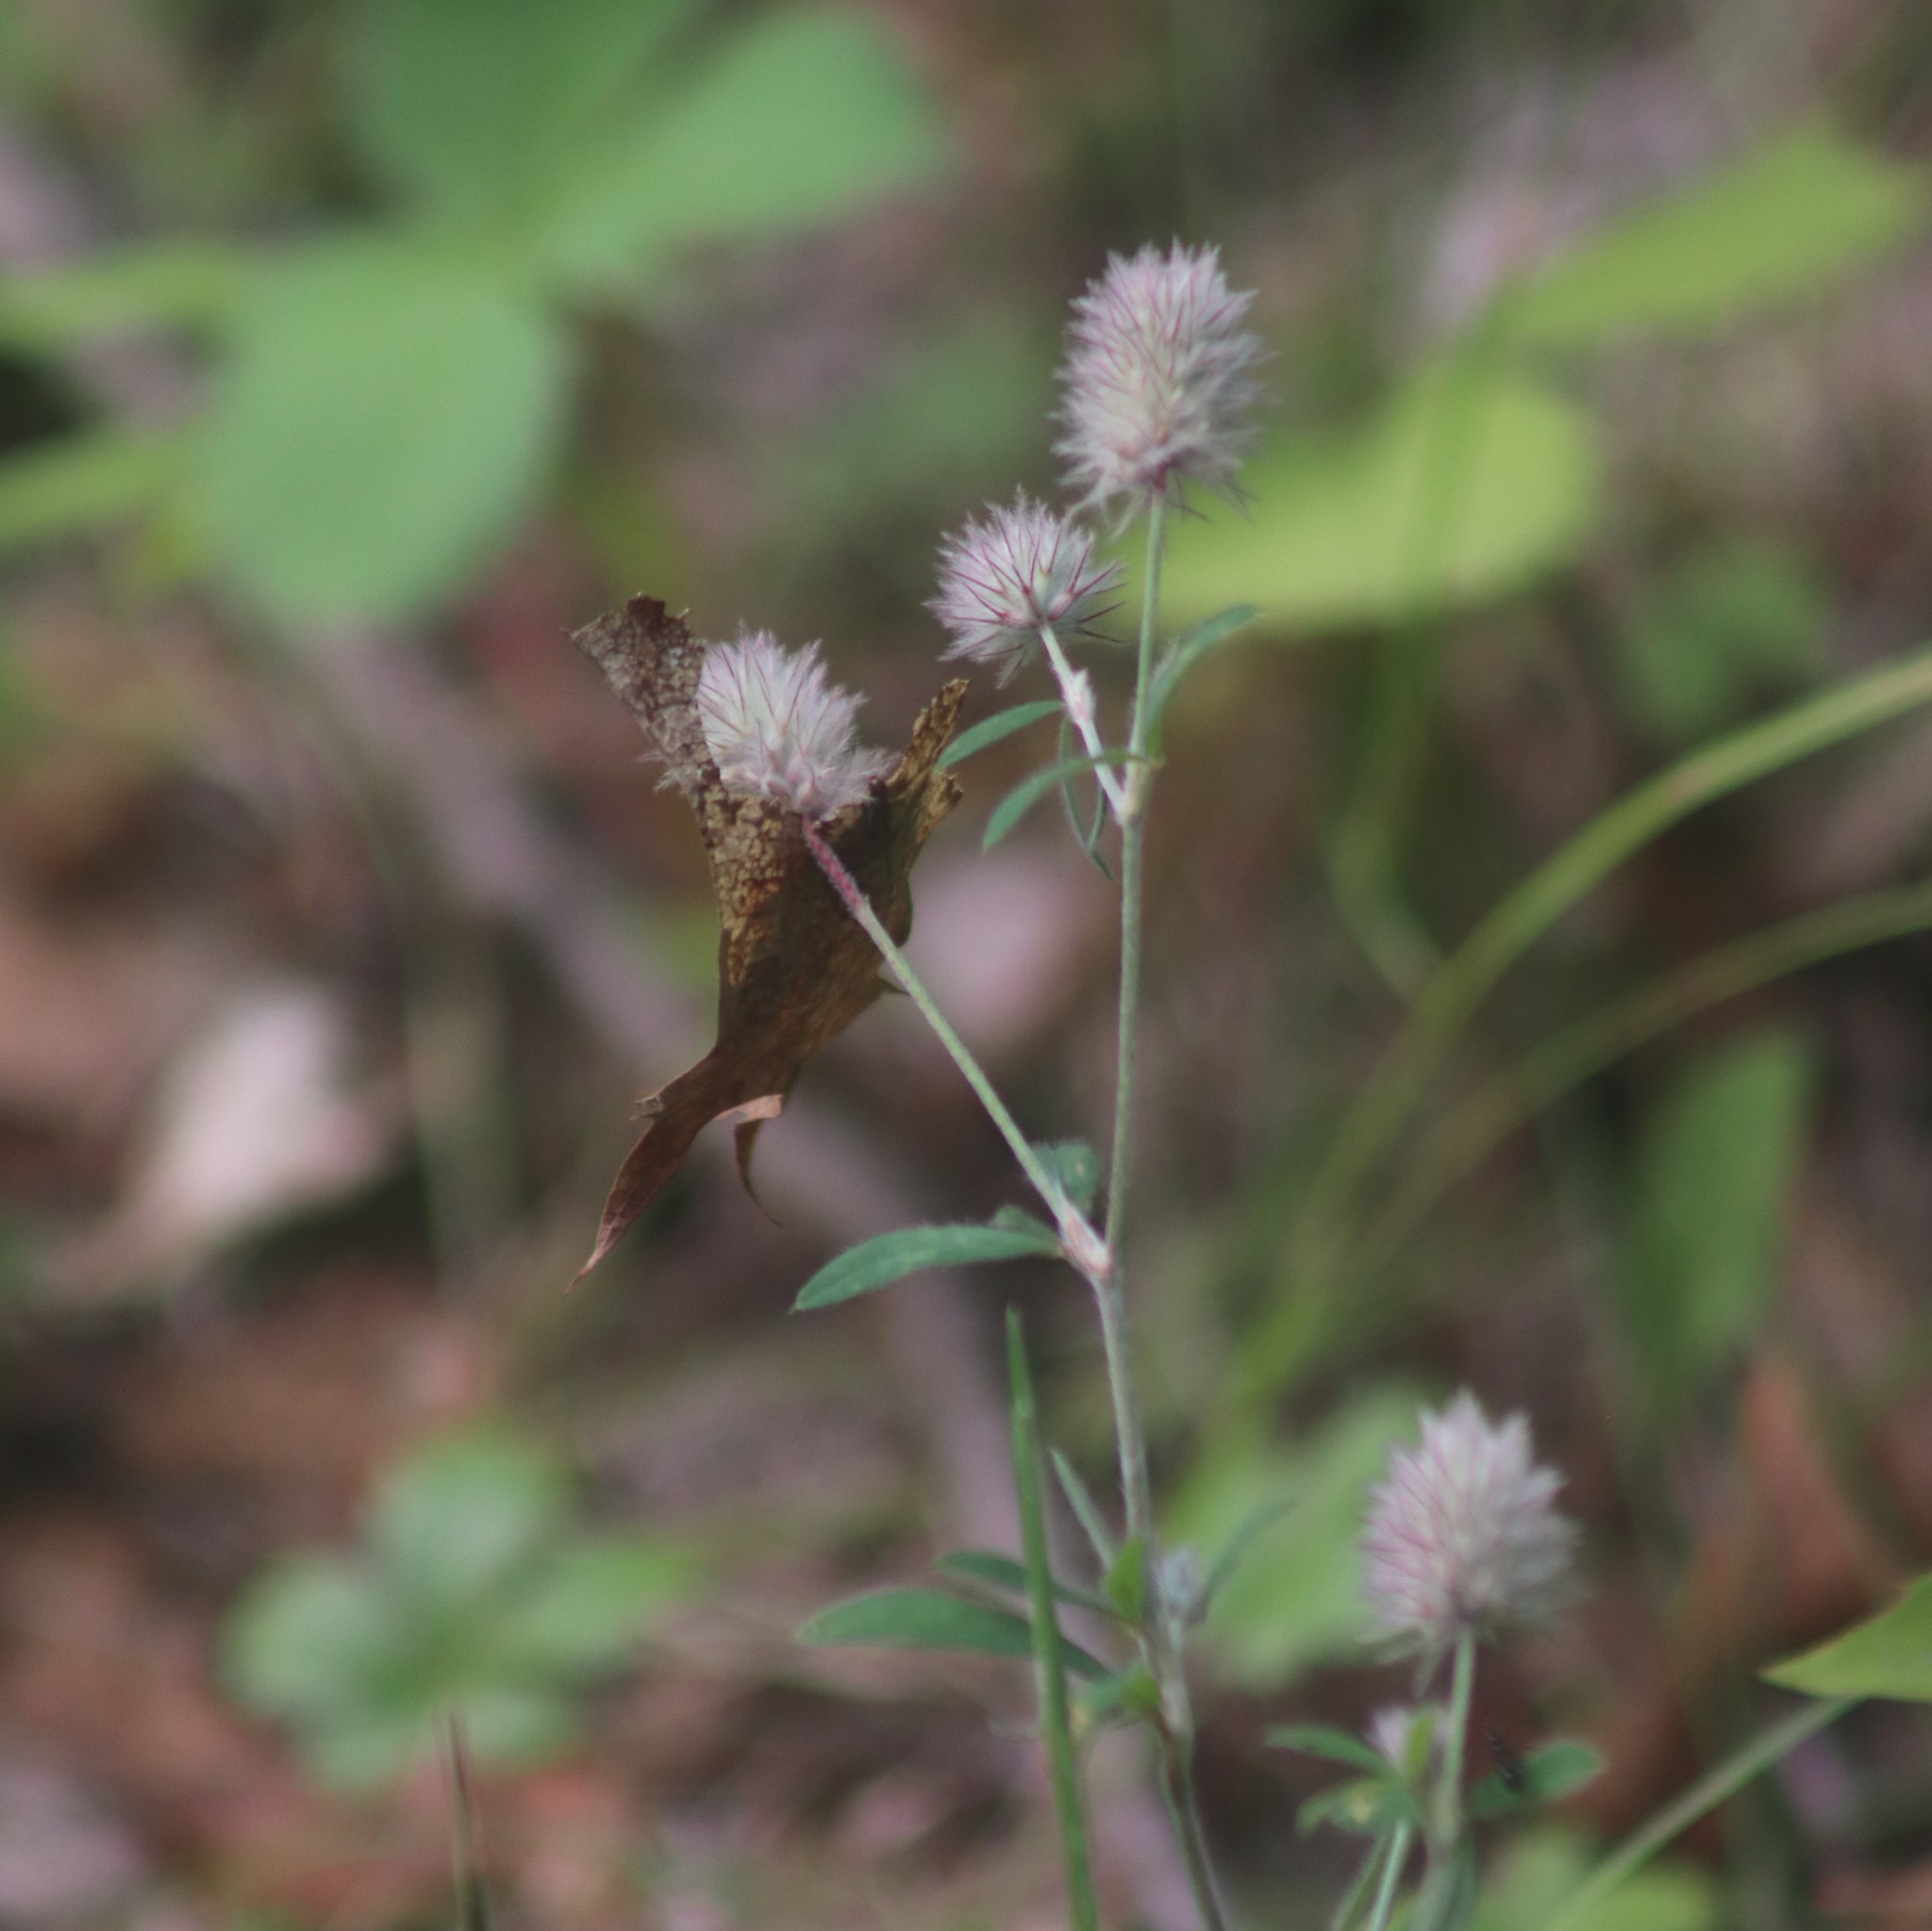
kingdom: Plantae
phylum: Tracheophyta
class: Magnoliopsida
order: Fabales
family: Fabaceae
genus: Trifolium
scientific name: Trifolium arvense
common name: Hare's-foot clover
